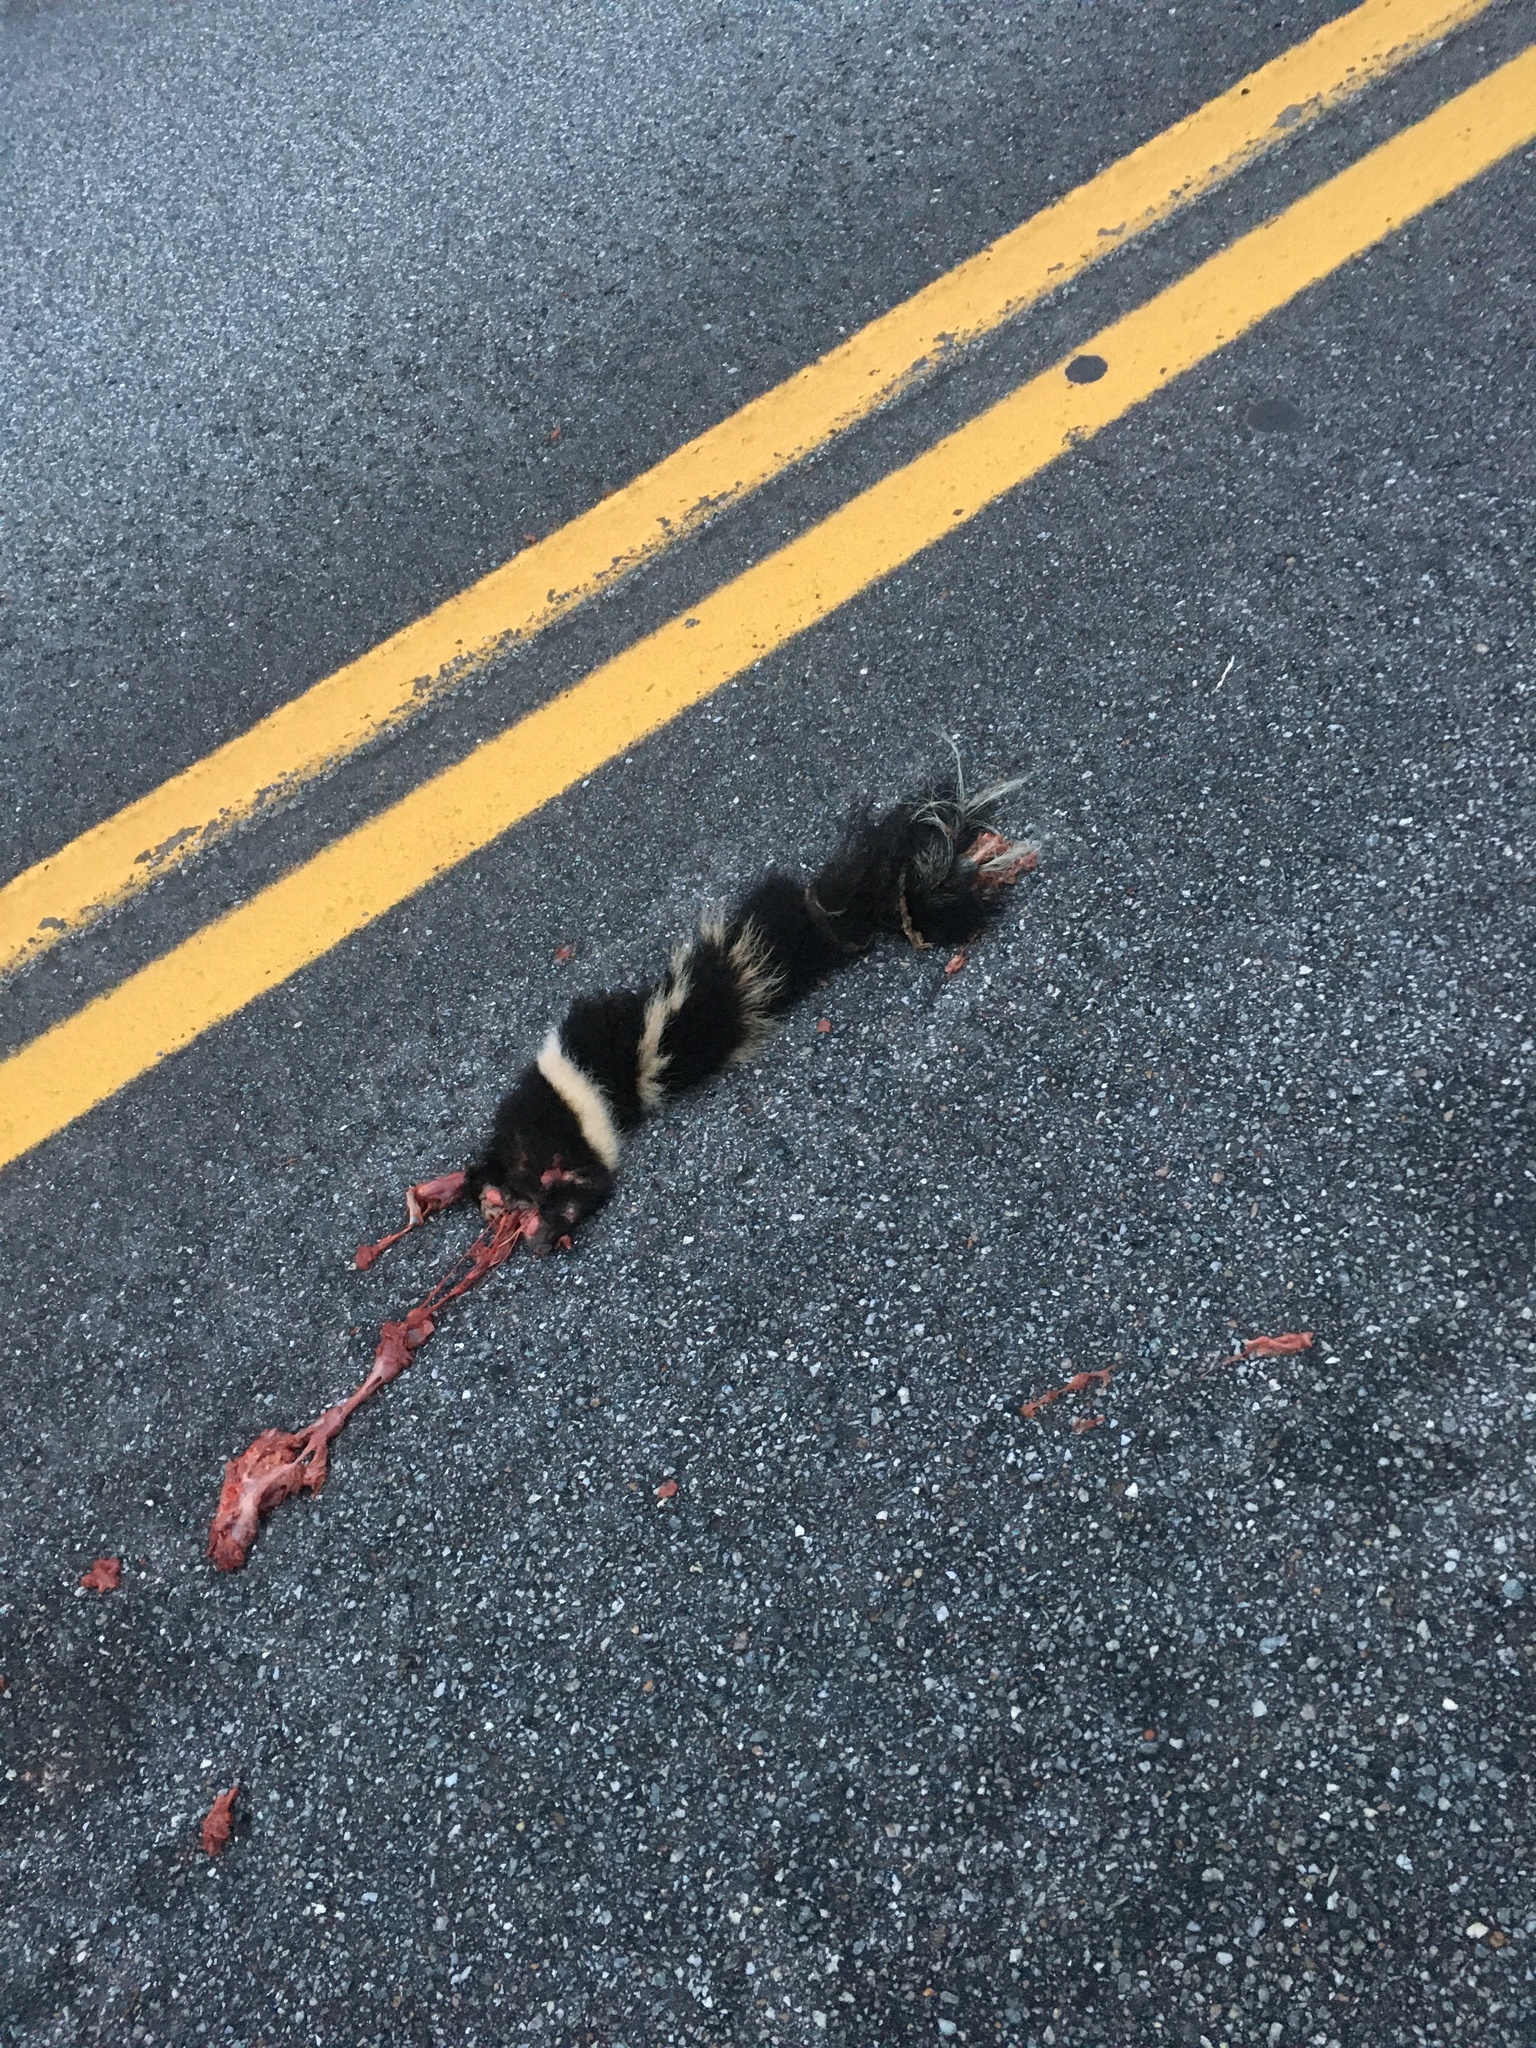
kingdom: Animalia
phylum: Chordata
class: Mammalia
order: Carnivora
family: Mephitidae
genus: Mephitis
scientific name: Mephitis mephitis
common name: Striped skunk
